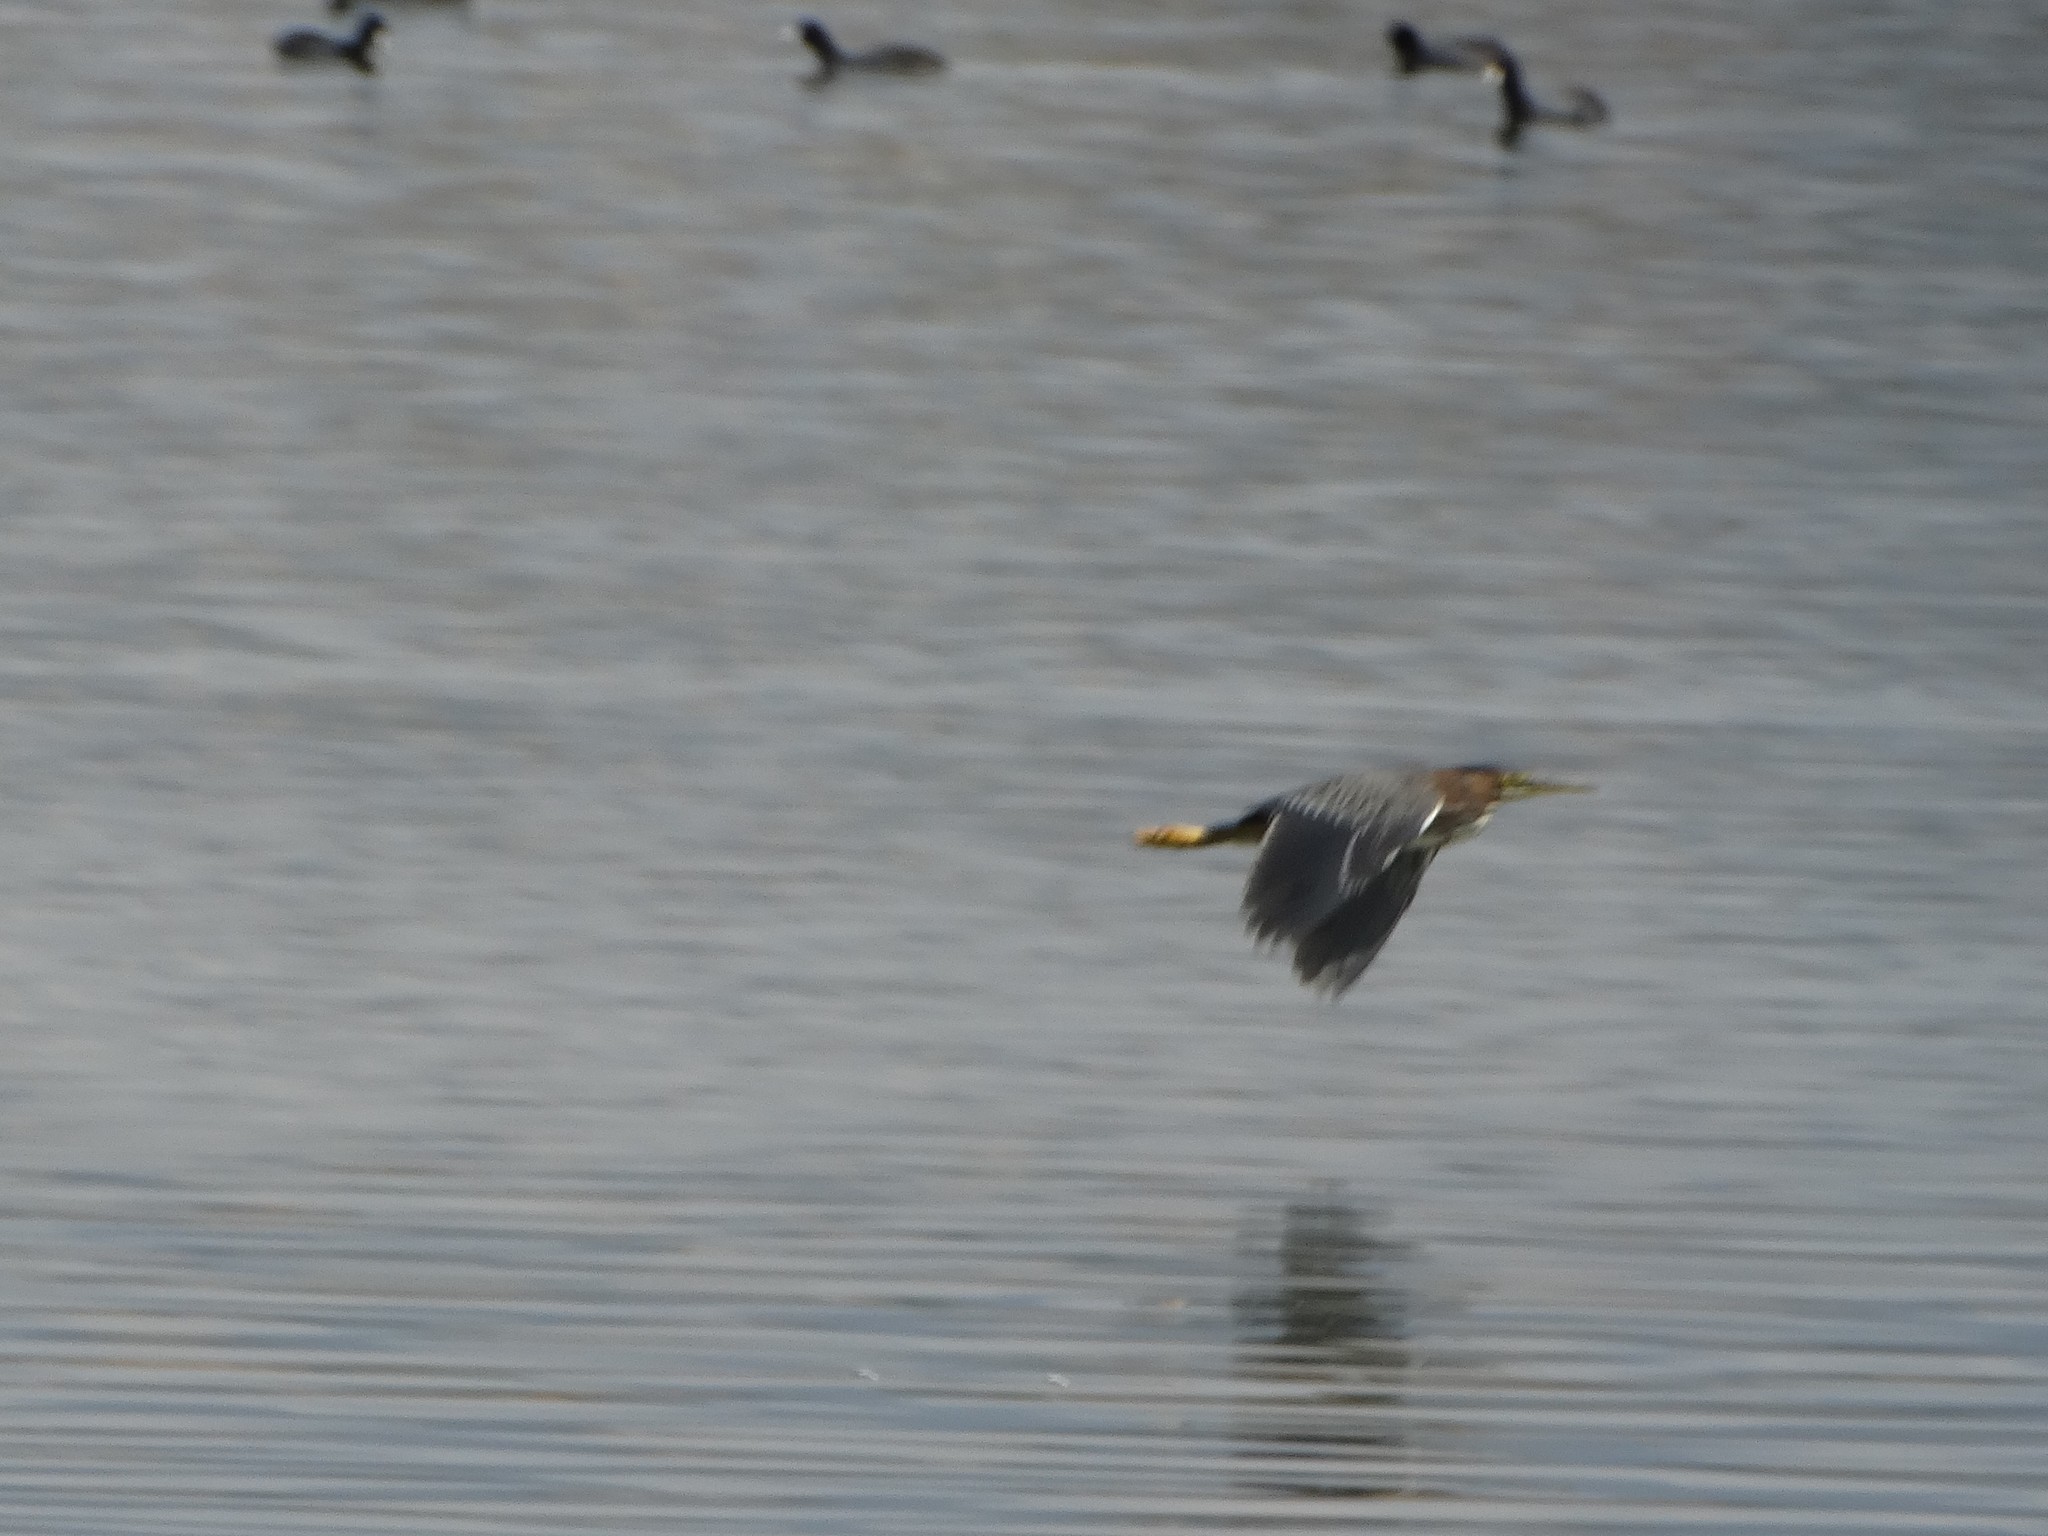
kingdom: Animalia
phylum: Chordata
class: Aves
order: Pelecaniformes
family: Ardeidae
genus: Butorides
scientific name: Butorides virescens
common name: Green heron
